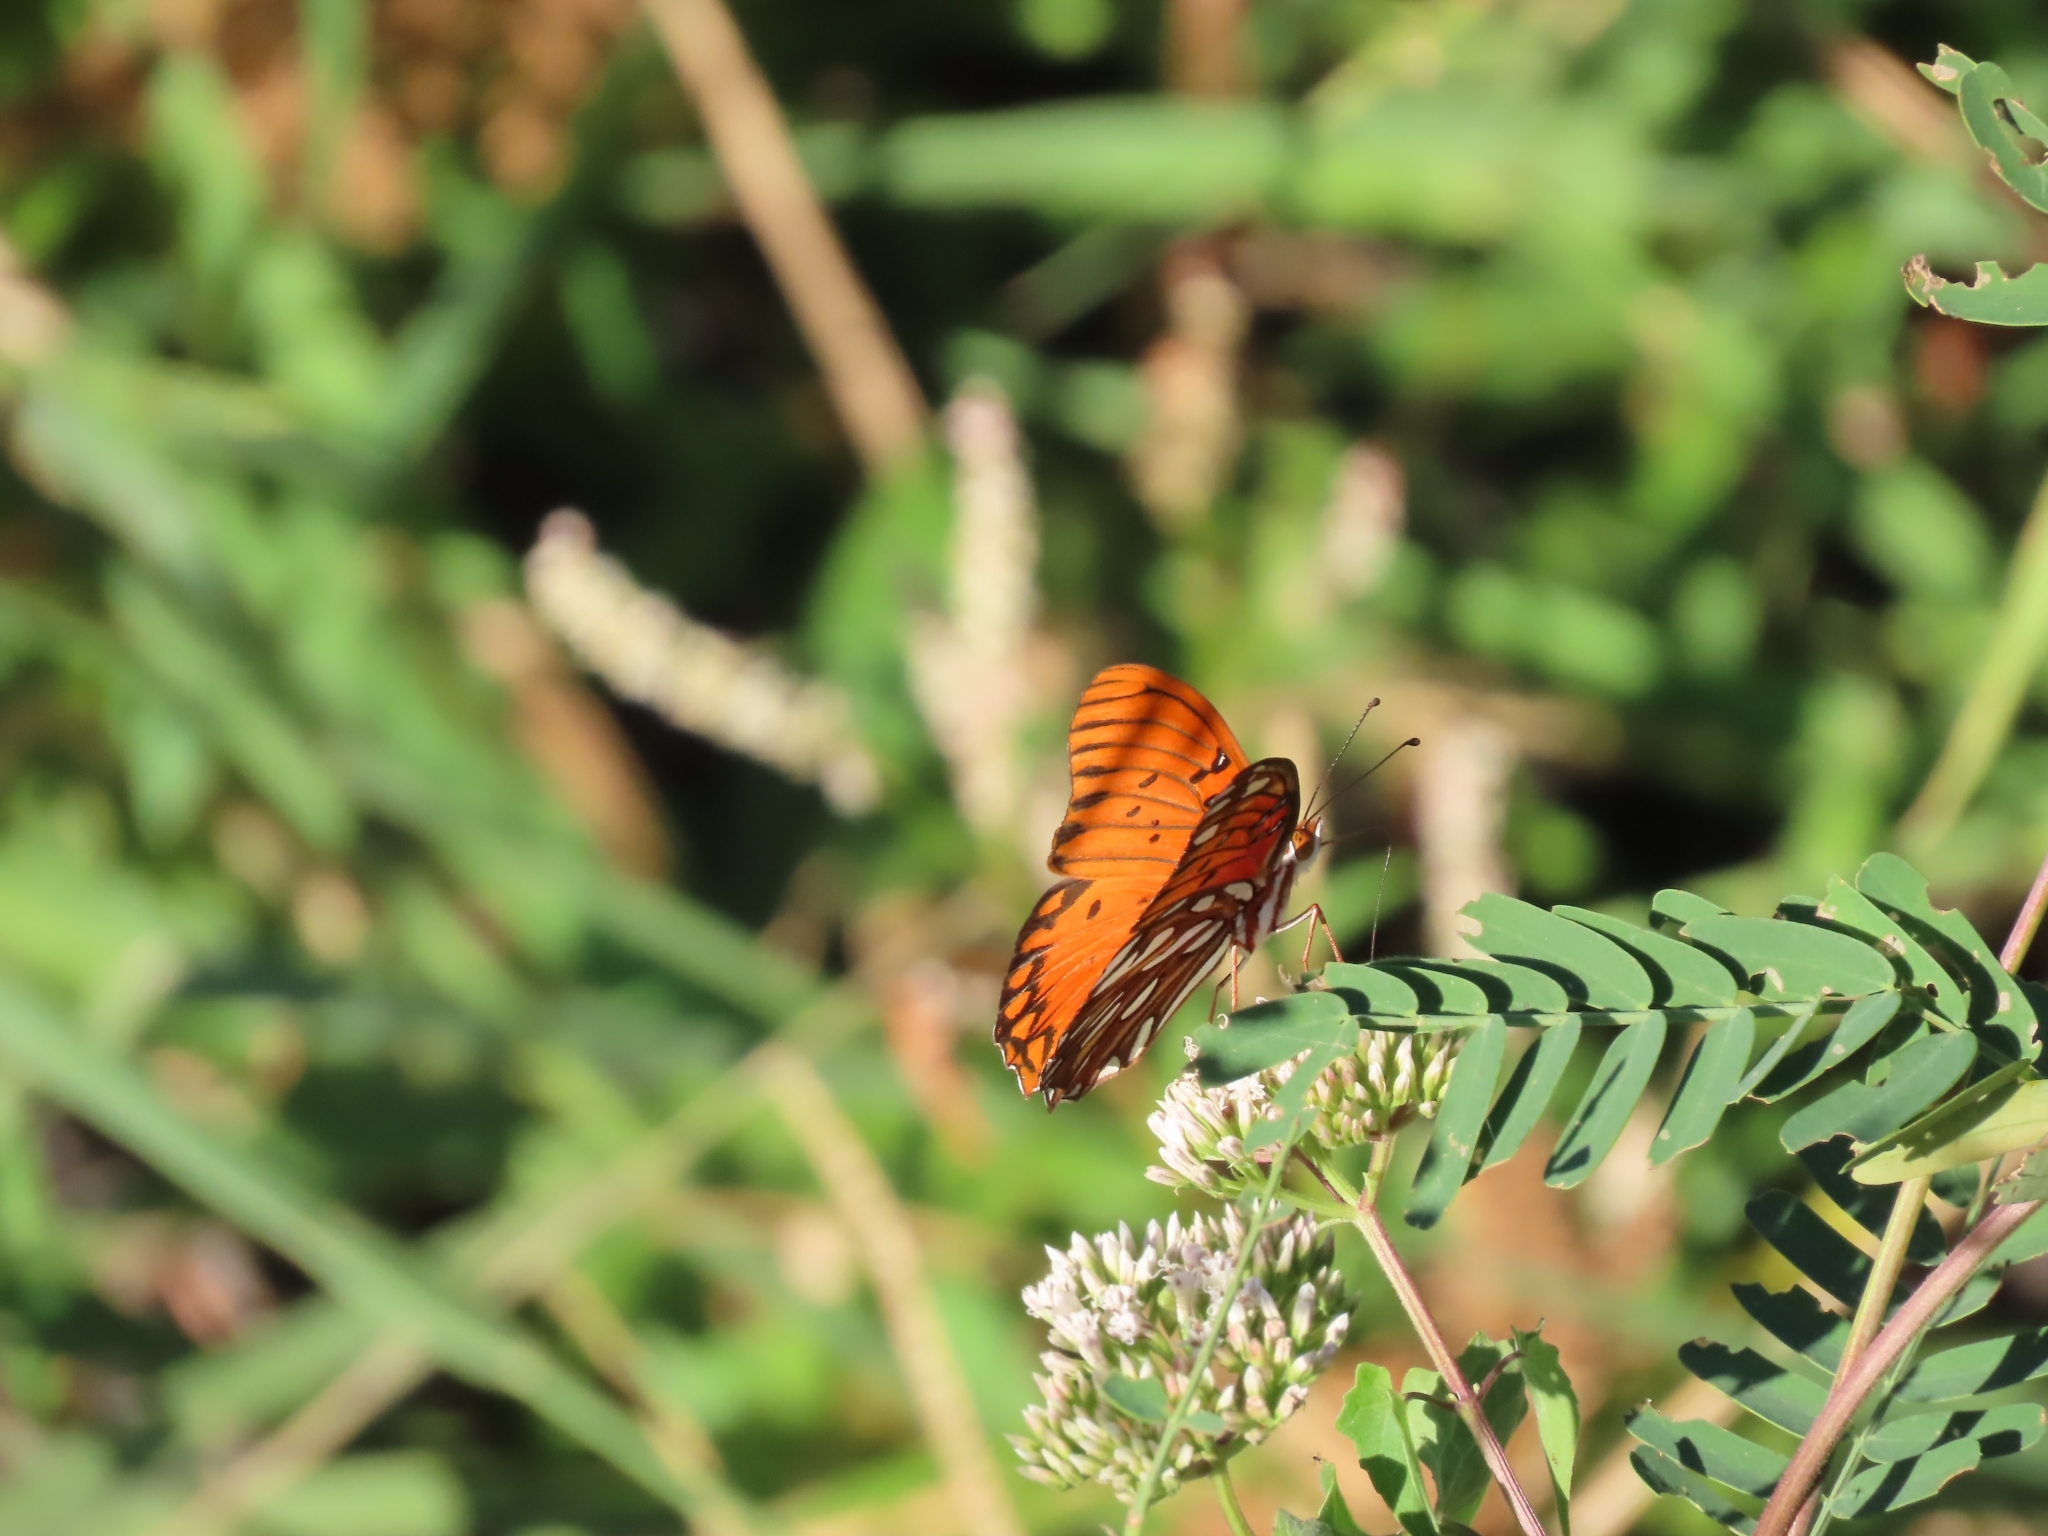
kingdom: Animalia
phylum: Arthropoda
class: Insecta
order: Lepidoptera
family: Nymphalidae
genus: Dione
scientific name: Dione vanillae
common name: Gulf fritillary
